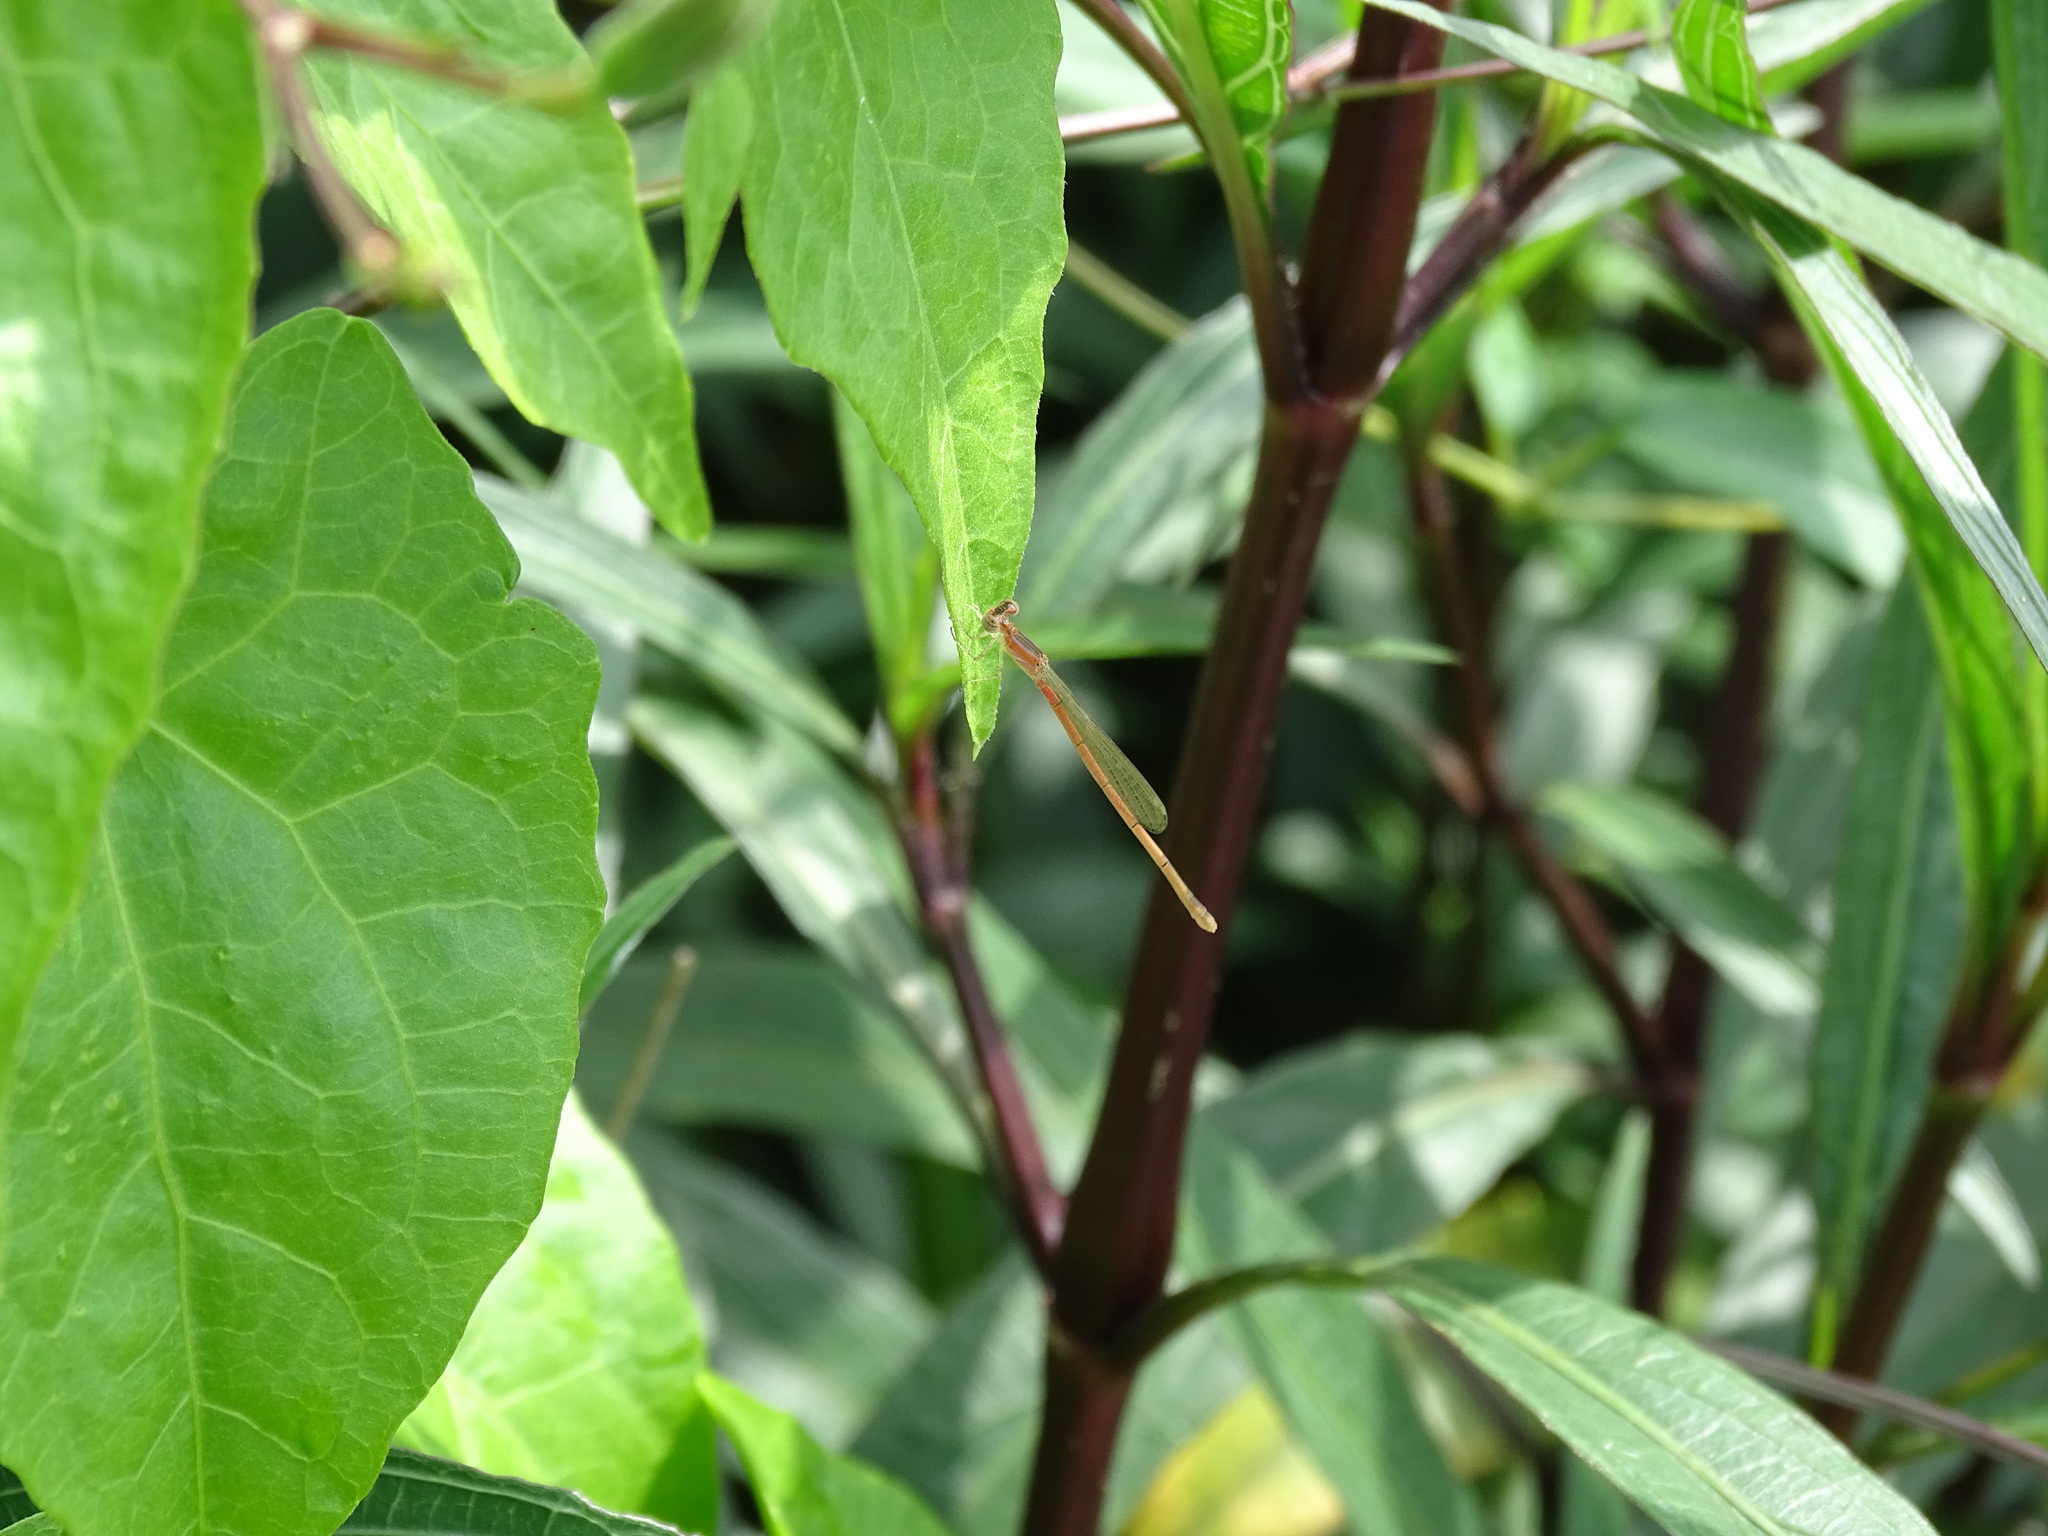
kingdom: Animalia
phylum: Arthropoda
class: Insecta
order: Odonata
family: Coenagrionidae
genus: Agriocnemis
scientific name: Agriocnemis pygmaea
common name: Pygmy wisp
